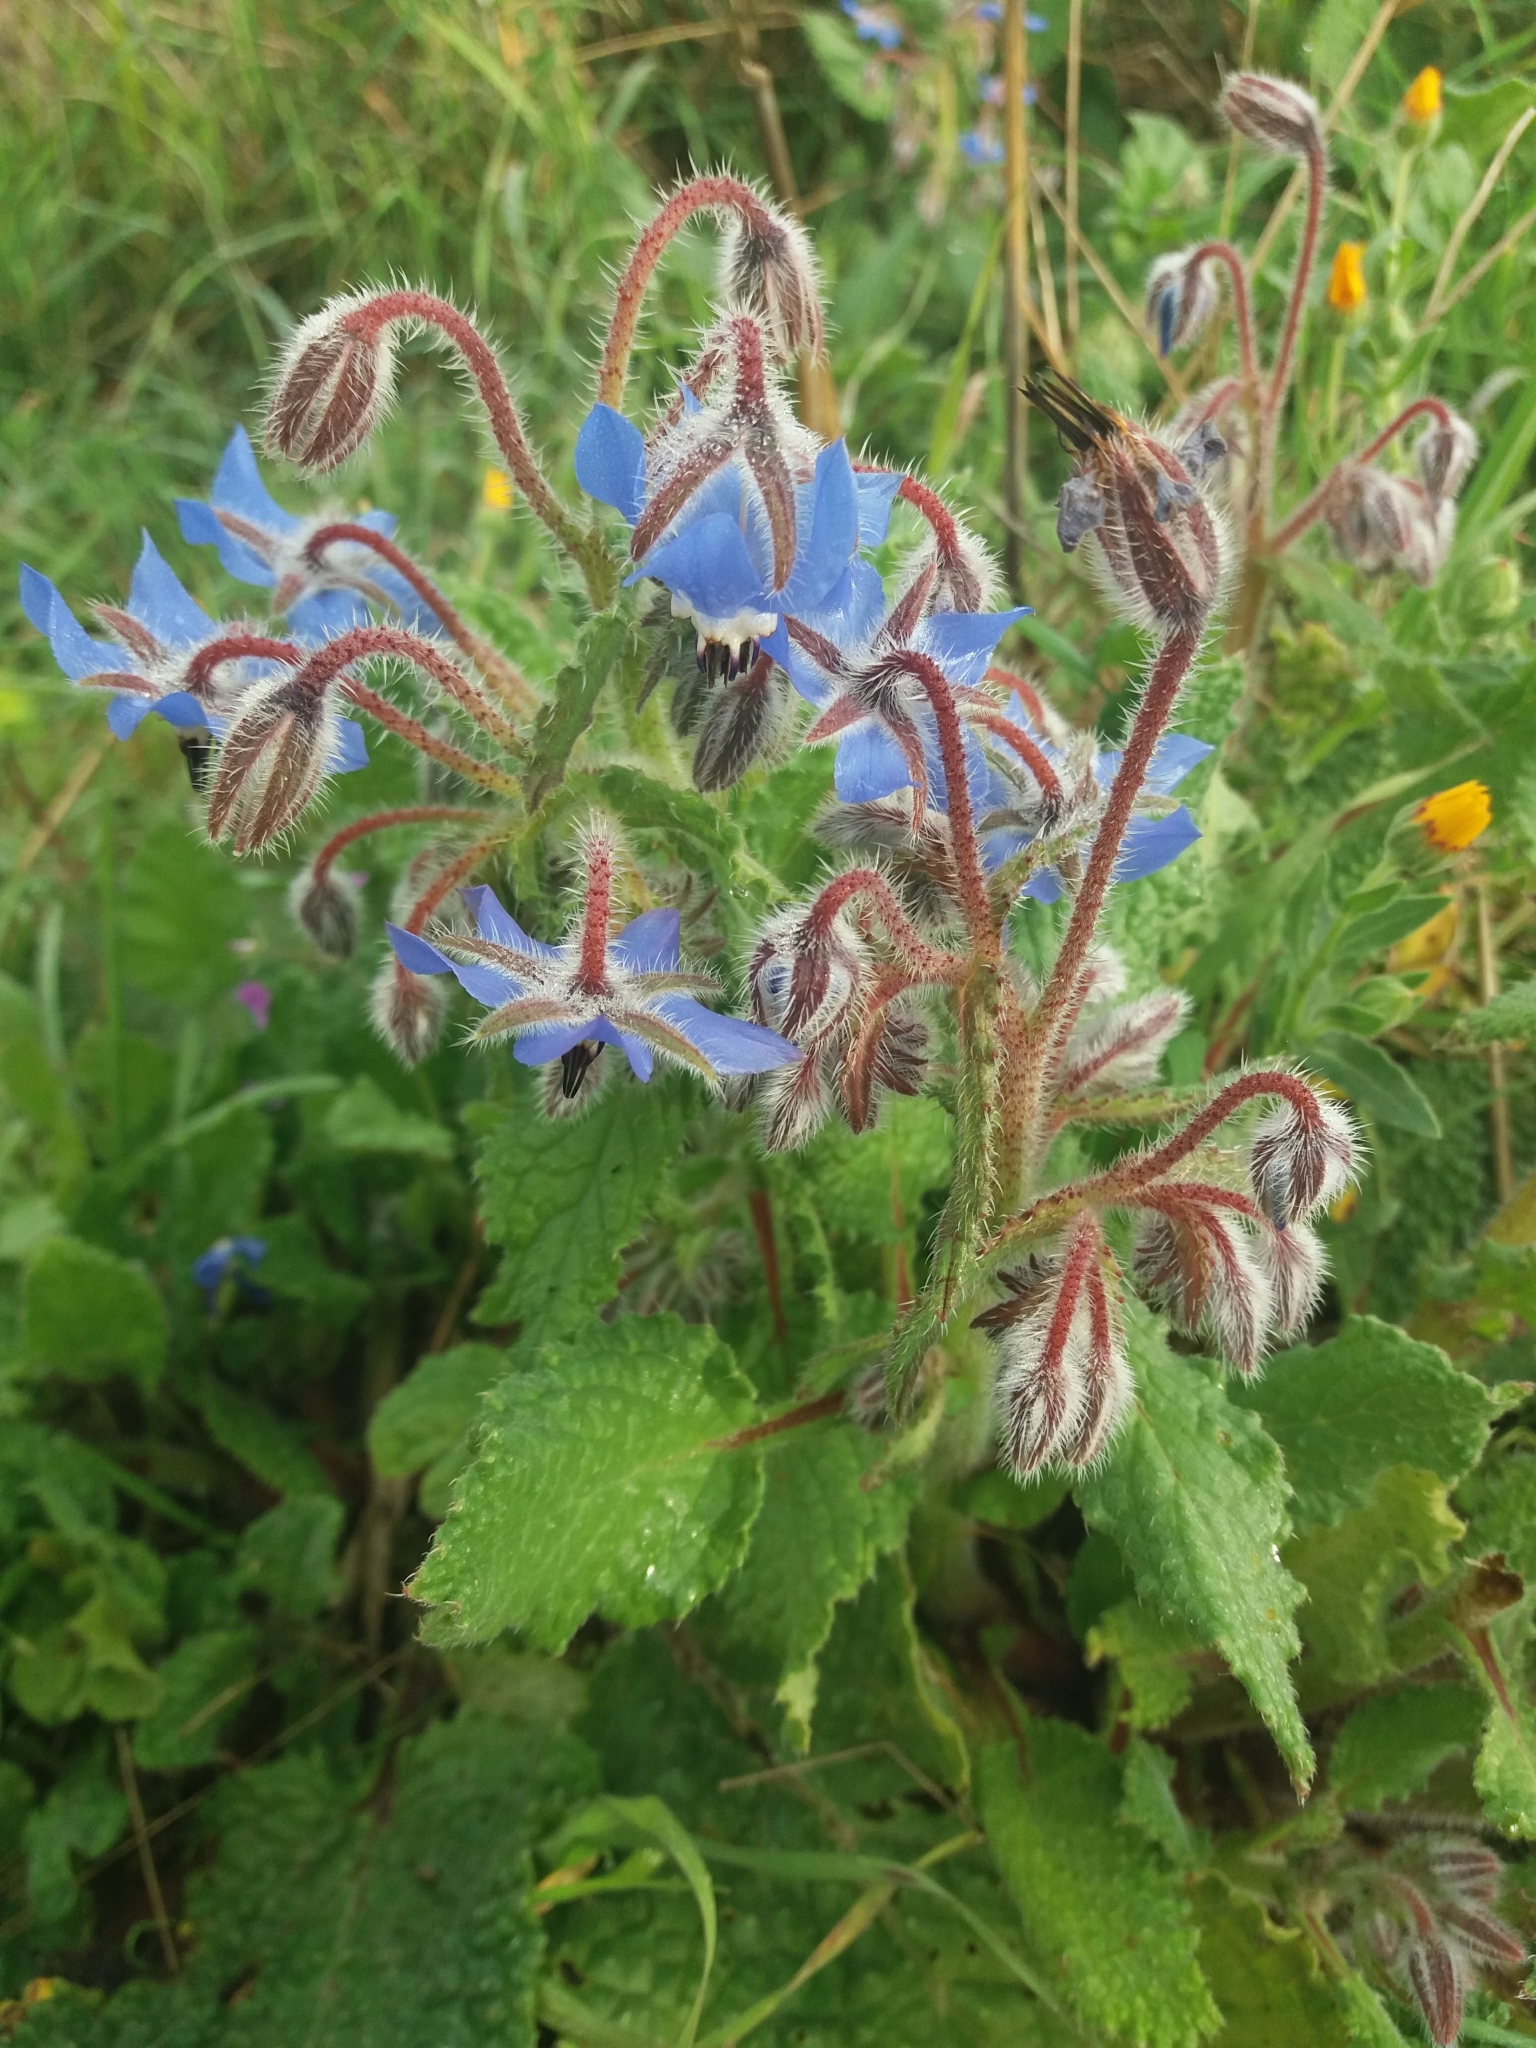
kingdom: Plantae
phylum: Tracheophyta
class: Magnoliopsida
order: Boraginales
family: Boraginaceae
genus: Borago
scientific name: Borago officinalis
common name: Borage
